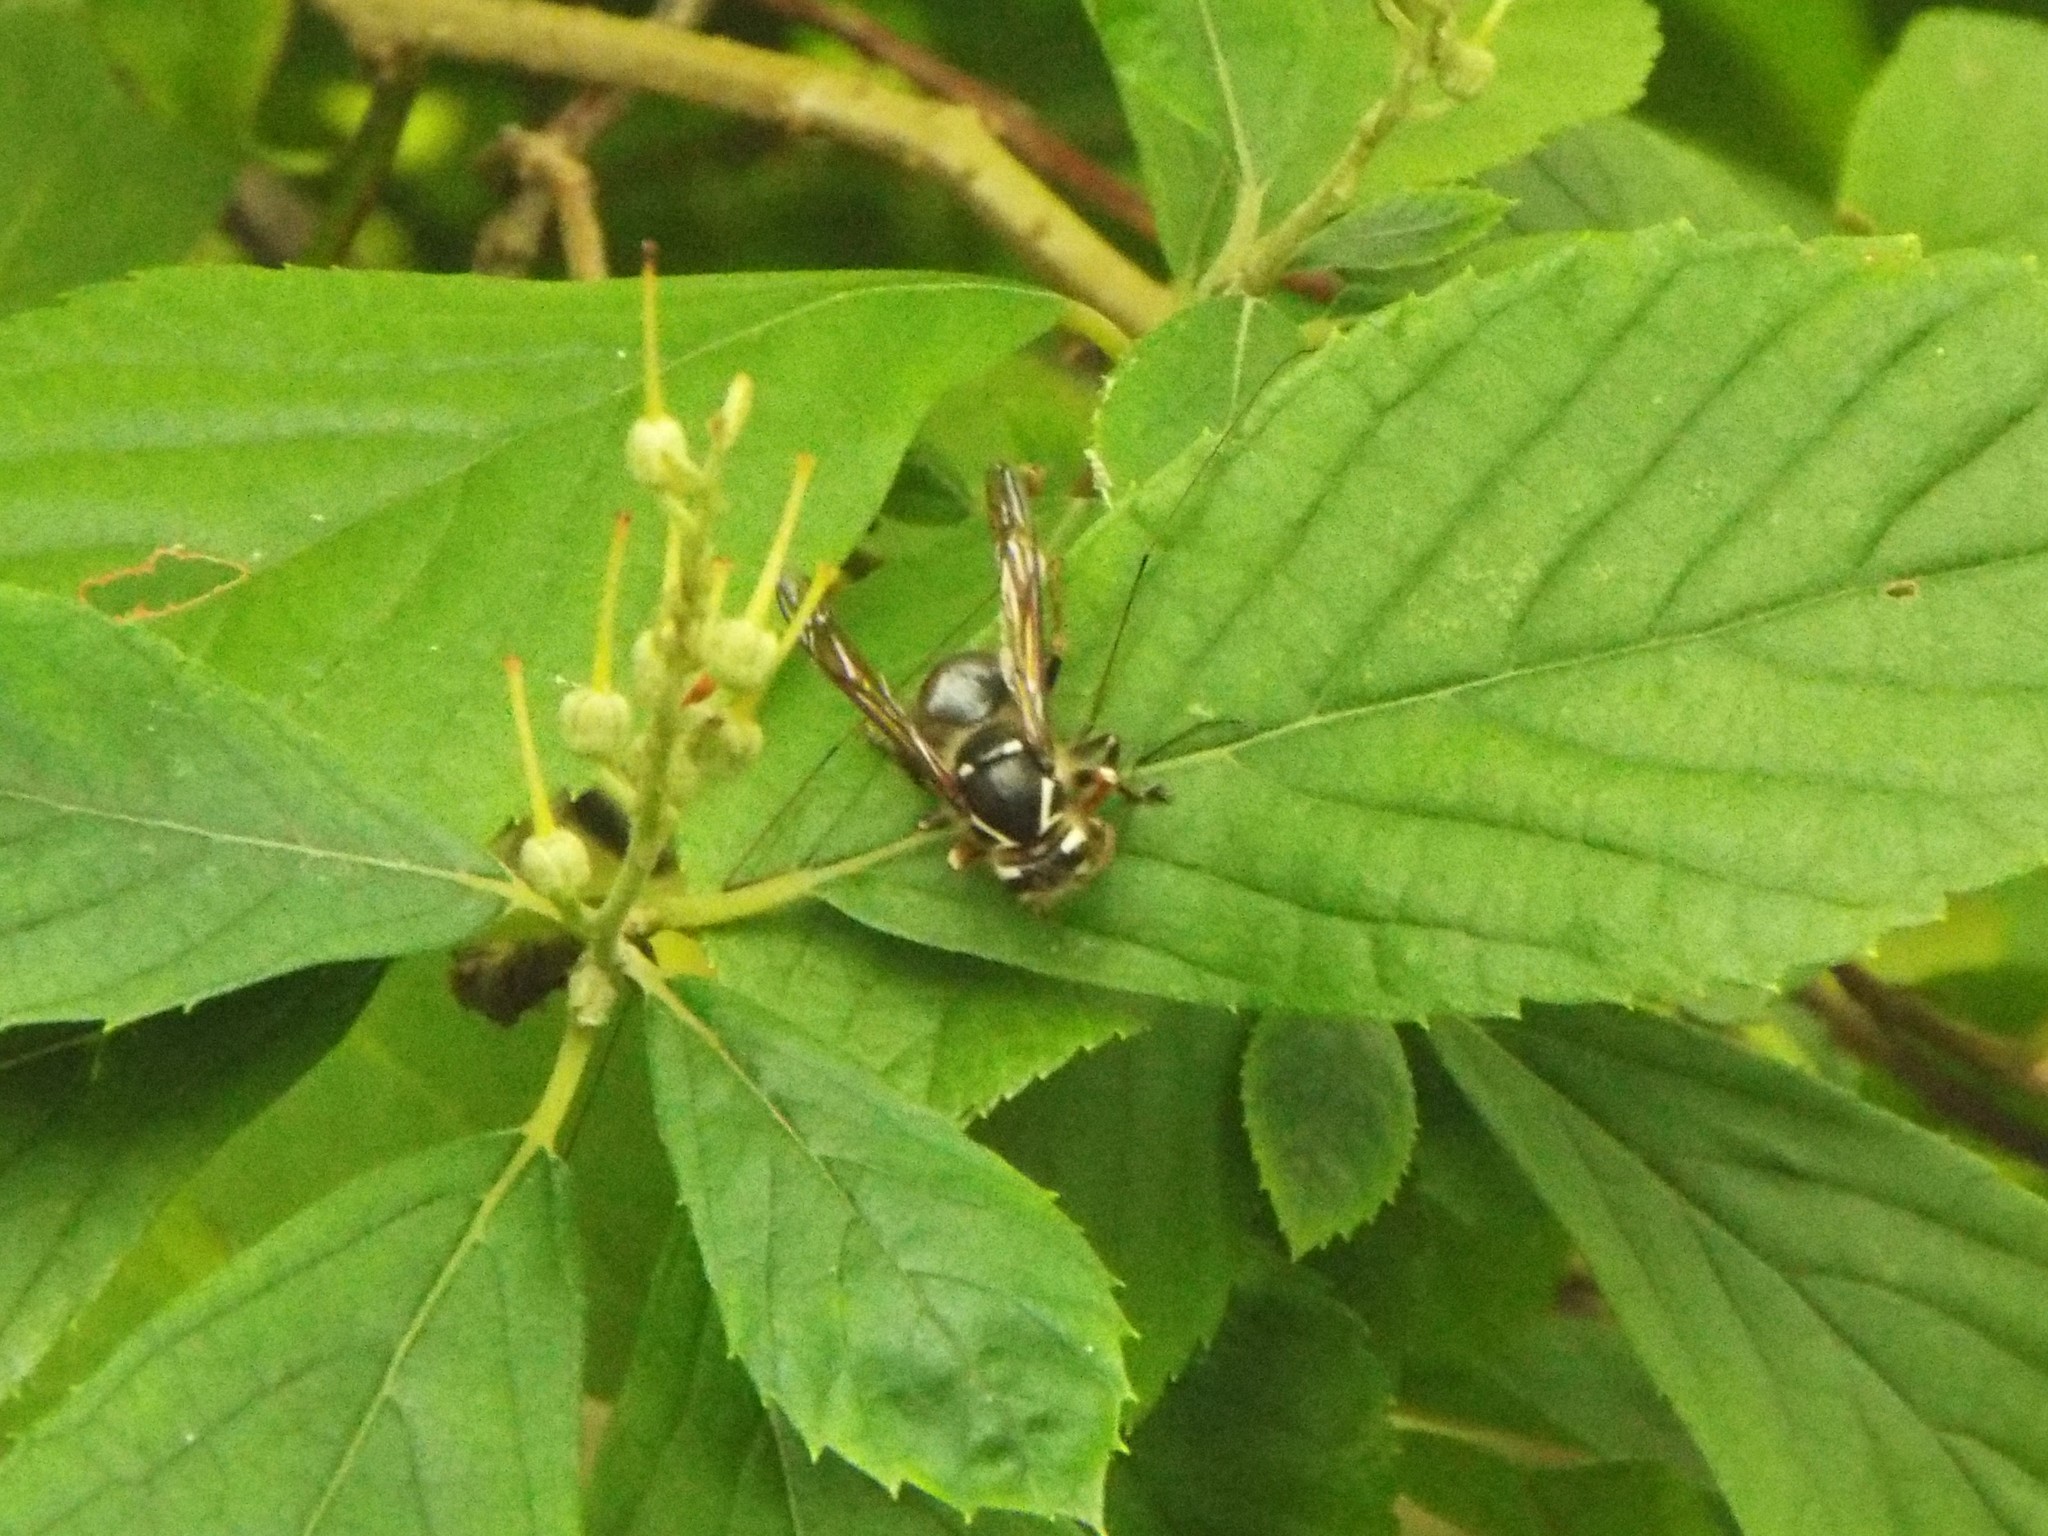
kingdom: Animalia
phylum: Arthropoda
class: Insecta
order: Hymenoptera
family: Vespidae
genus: Dolichovespula
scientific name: Dolichovespula maculata
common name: Bald-faced hornet
